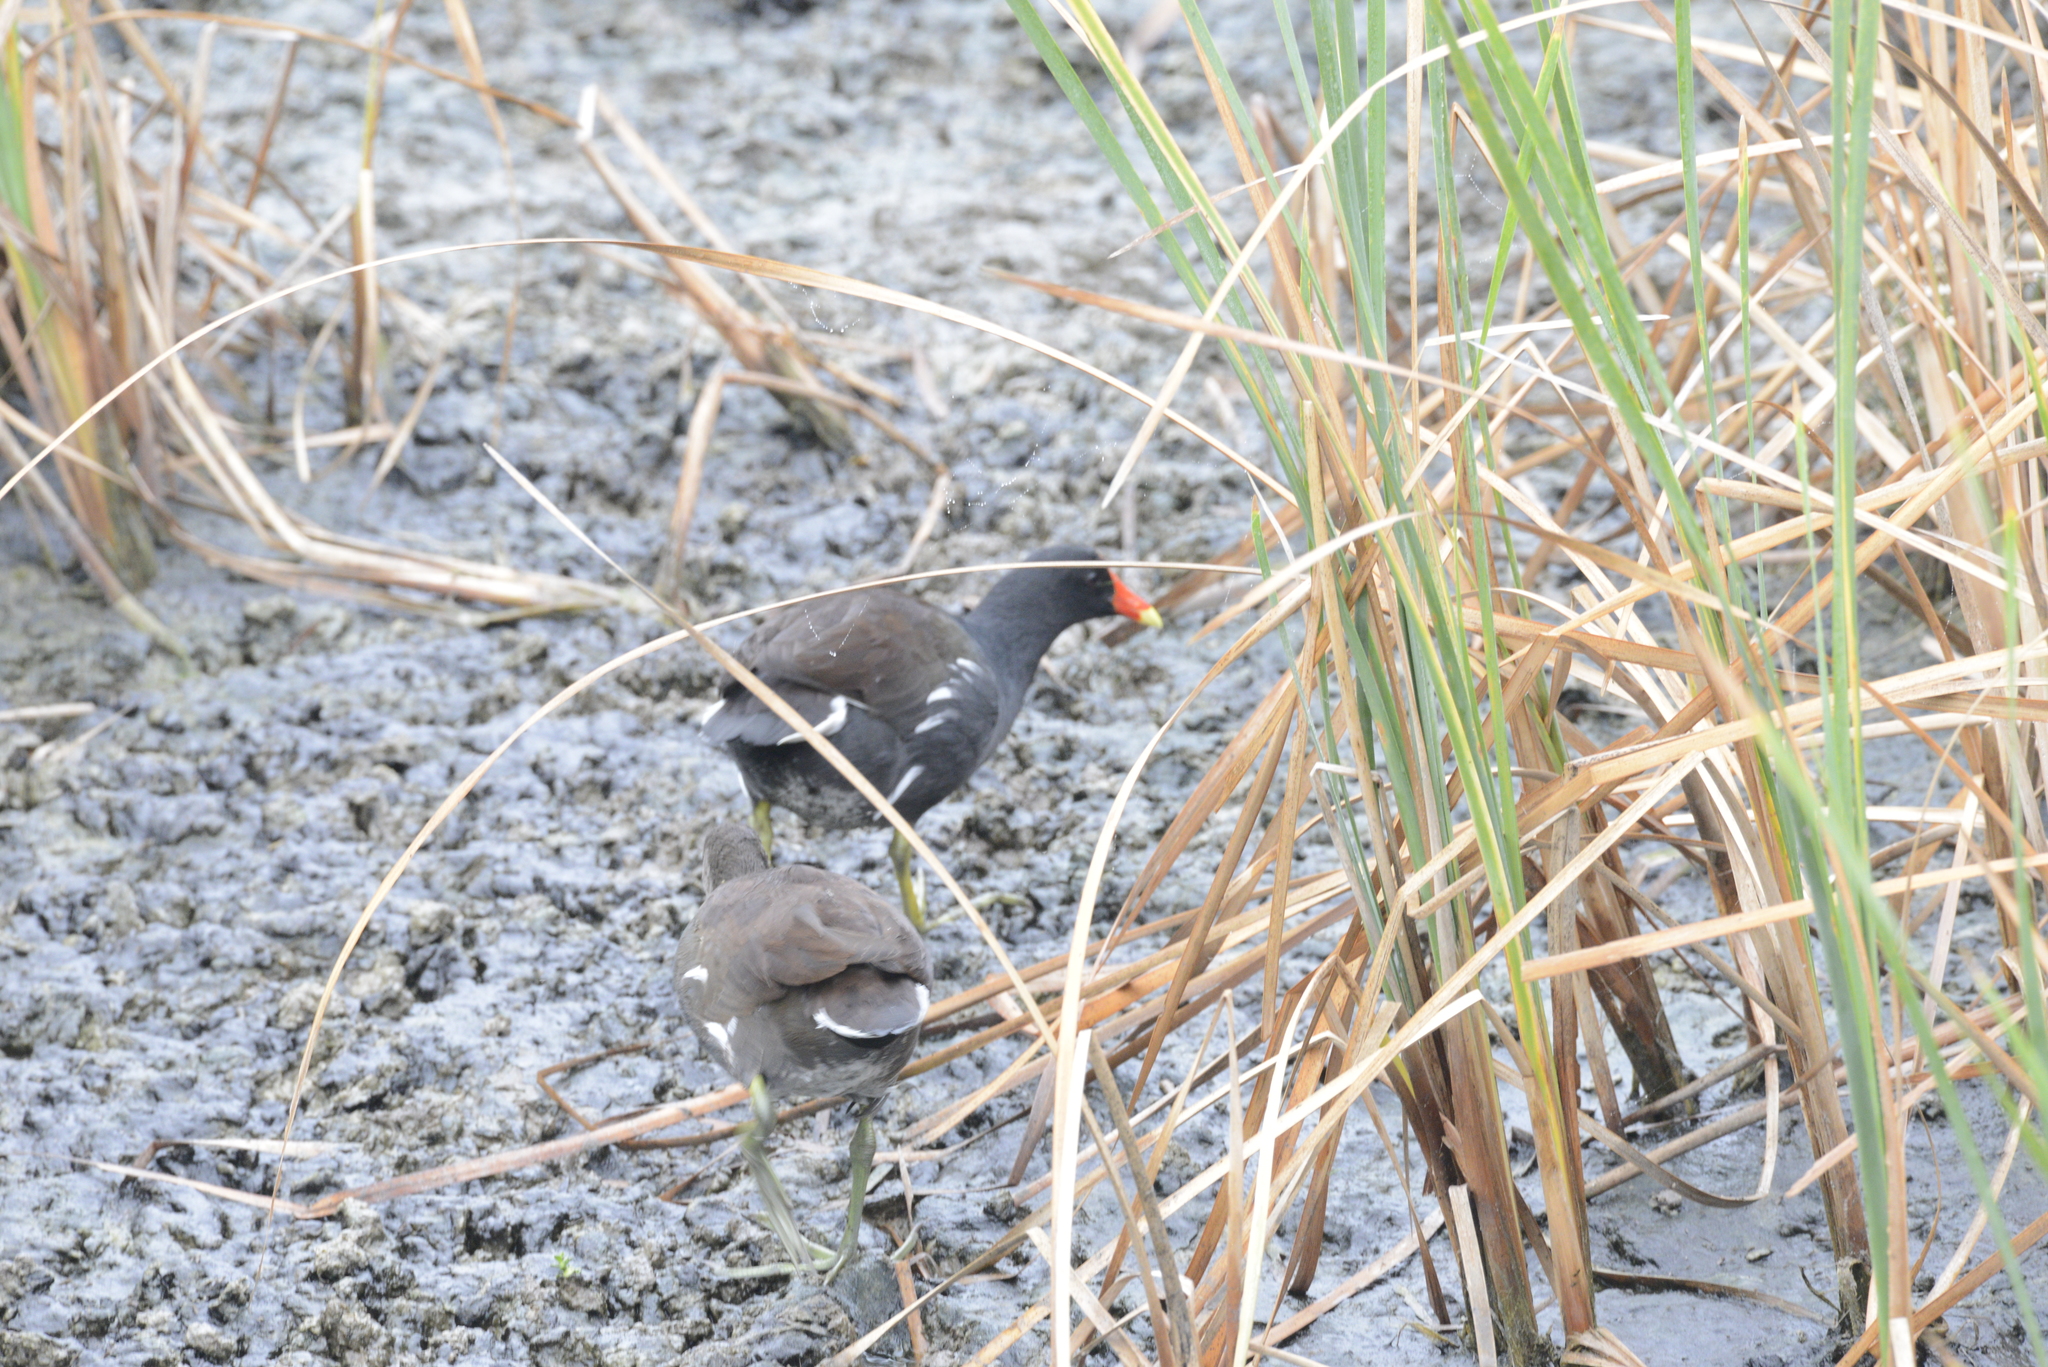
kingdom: Animalia
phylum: Chordata
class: Aves
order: Gruiformes
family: Rallidae
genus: Gallinula
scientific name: Gallinula chloropus
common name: Common moorhen
